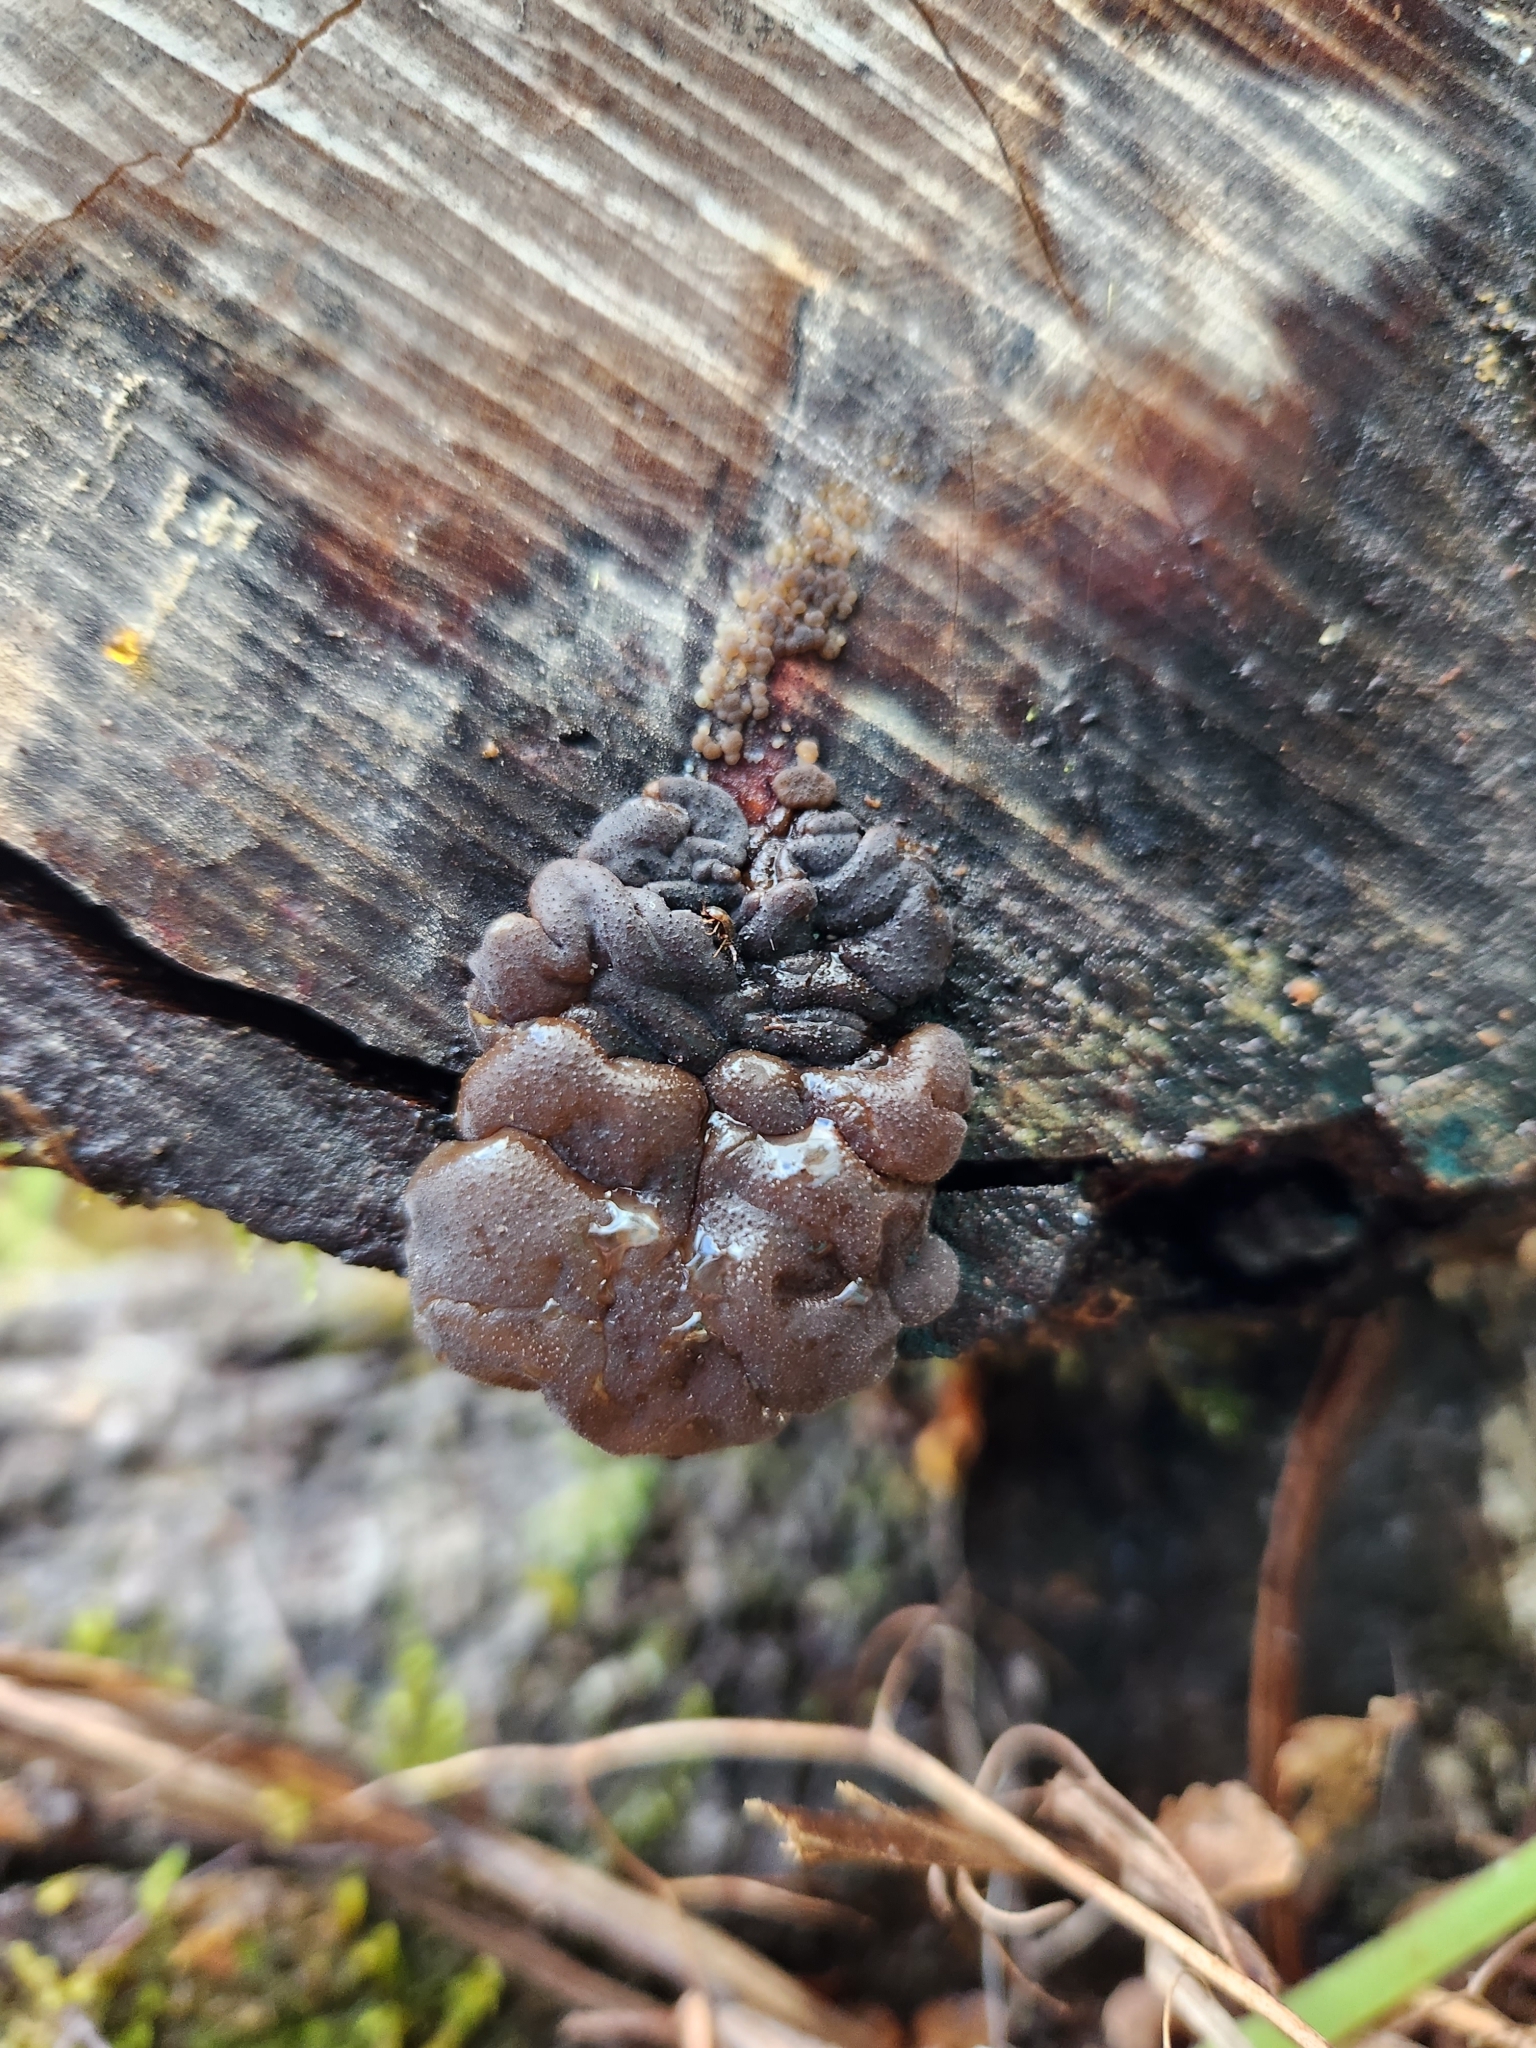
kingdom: Fungi
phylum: Basidiomycota
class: Agaricomycetes
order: Auriculariales
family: Auriculariaceae
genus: Tremellochaete
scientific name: Tremellochaete
